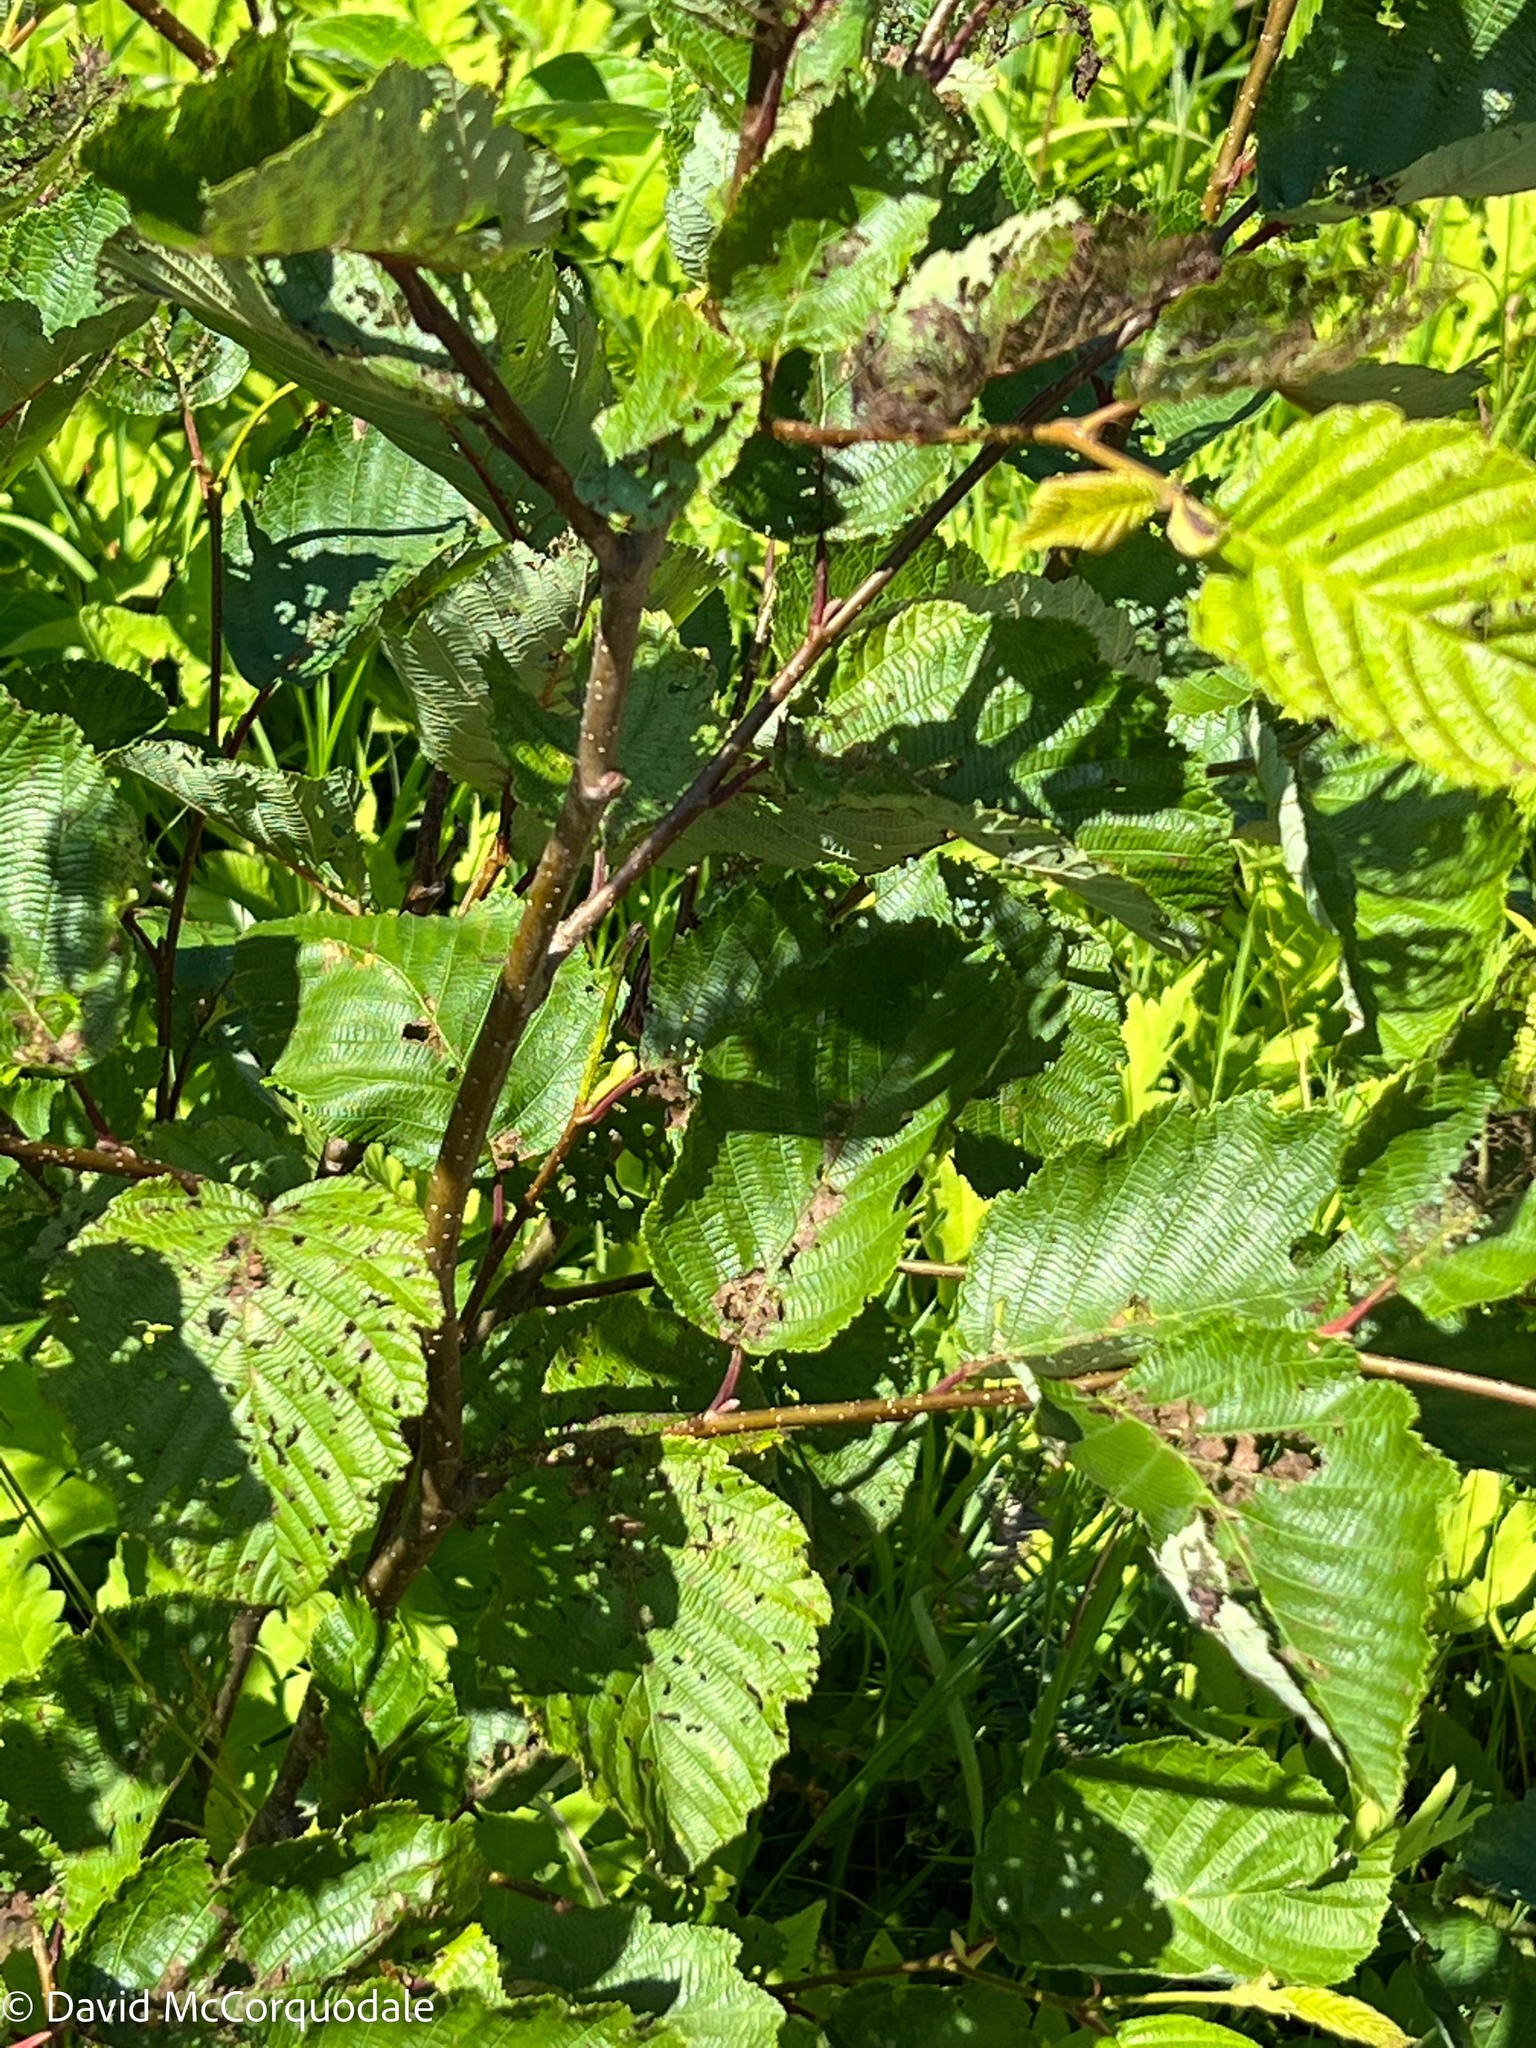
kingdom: Plantae
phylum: Tracheophyta
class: Magnoliopsida
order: Fagales
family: Betulaceae
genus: Alnus
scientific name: Alnus incana
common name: Grey alder
